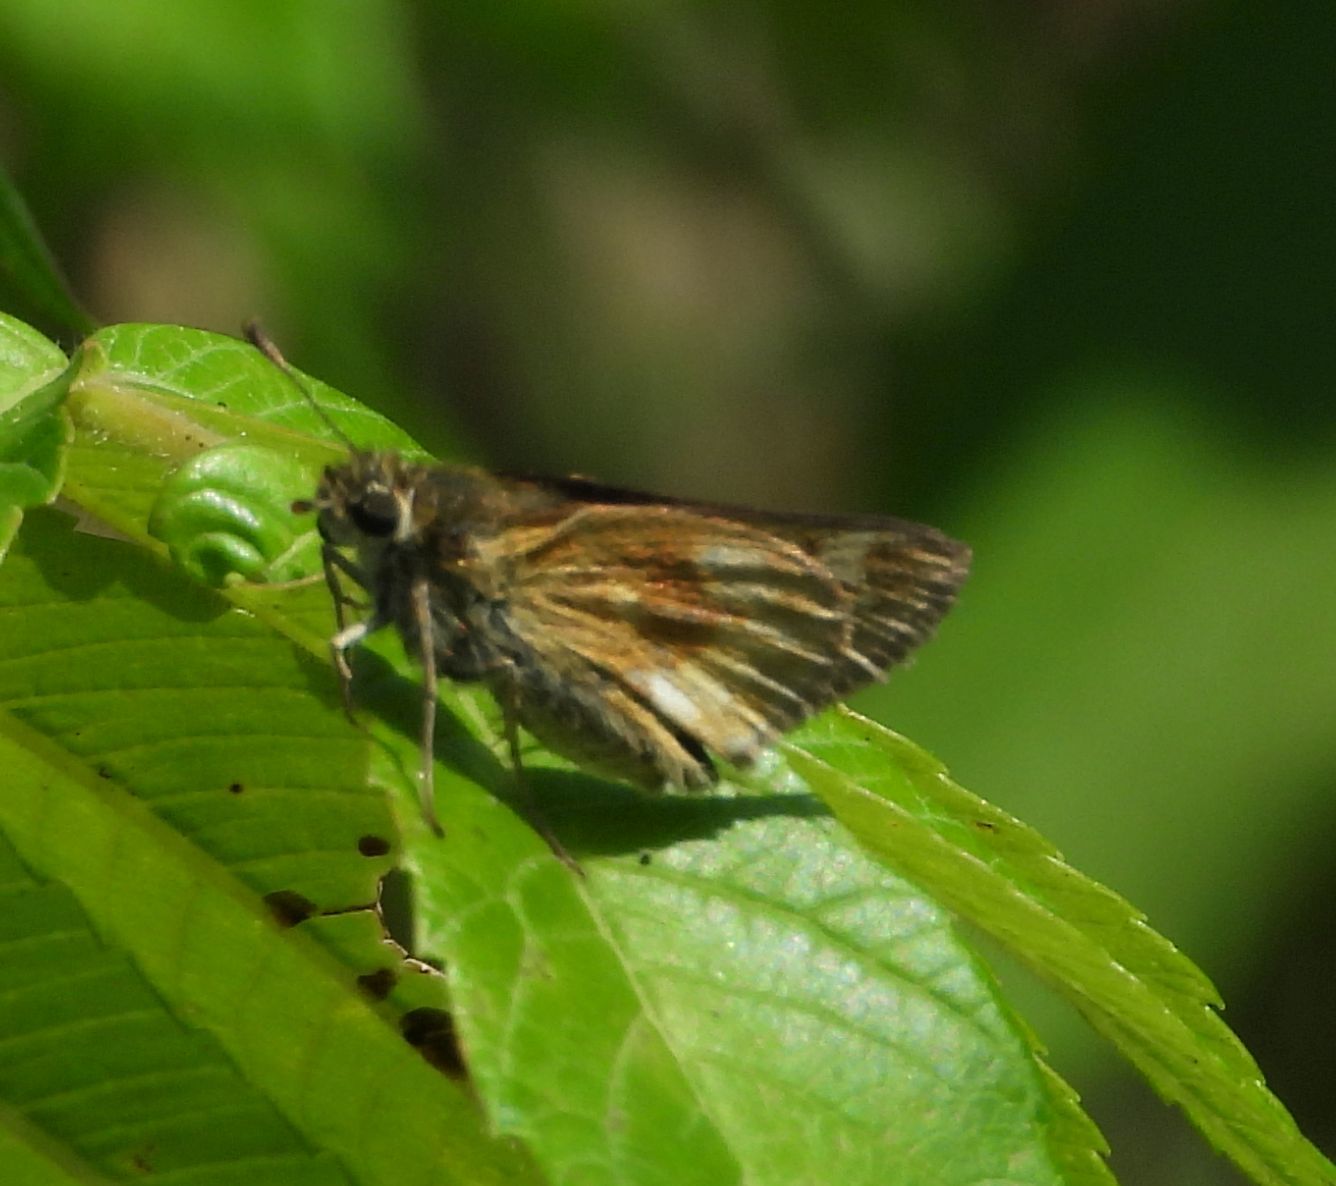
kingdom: Animalia
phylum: Arthropoda
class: Insecta
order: Lepidoptera
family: Hesperiidae
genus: Polites
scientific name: Polites mystic
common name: Long dash
